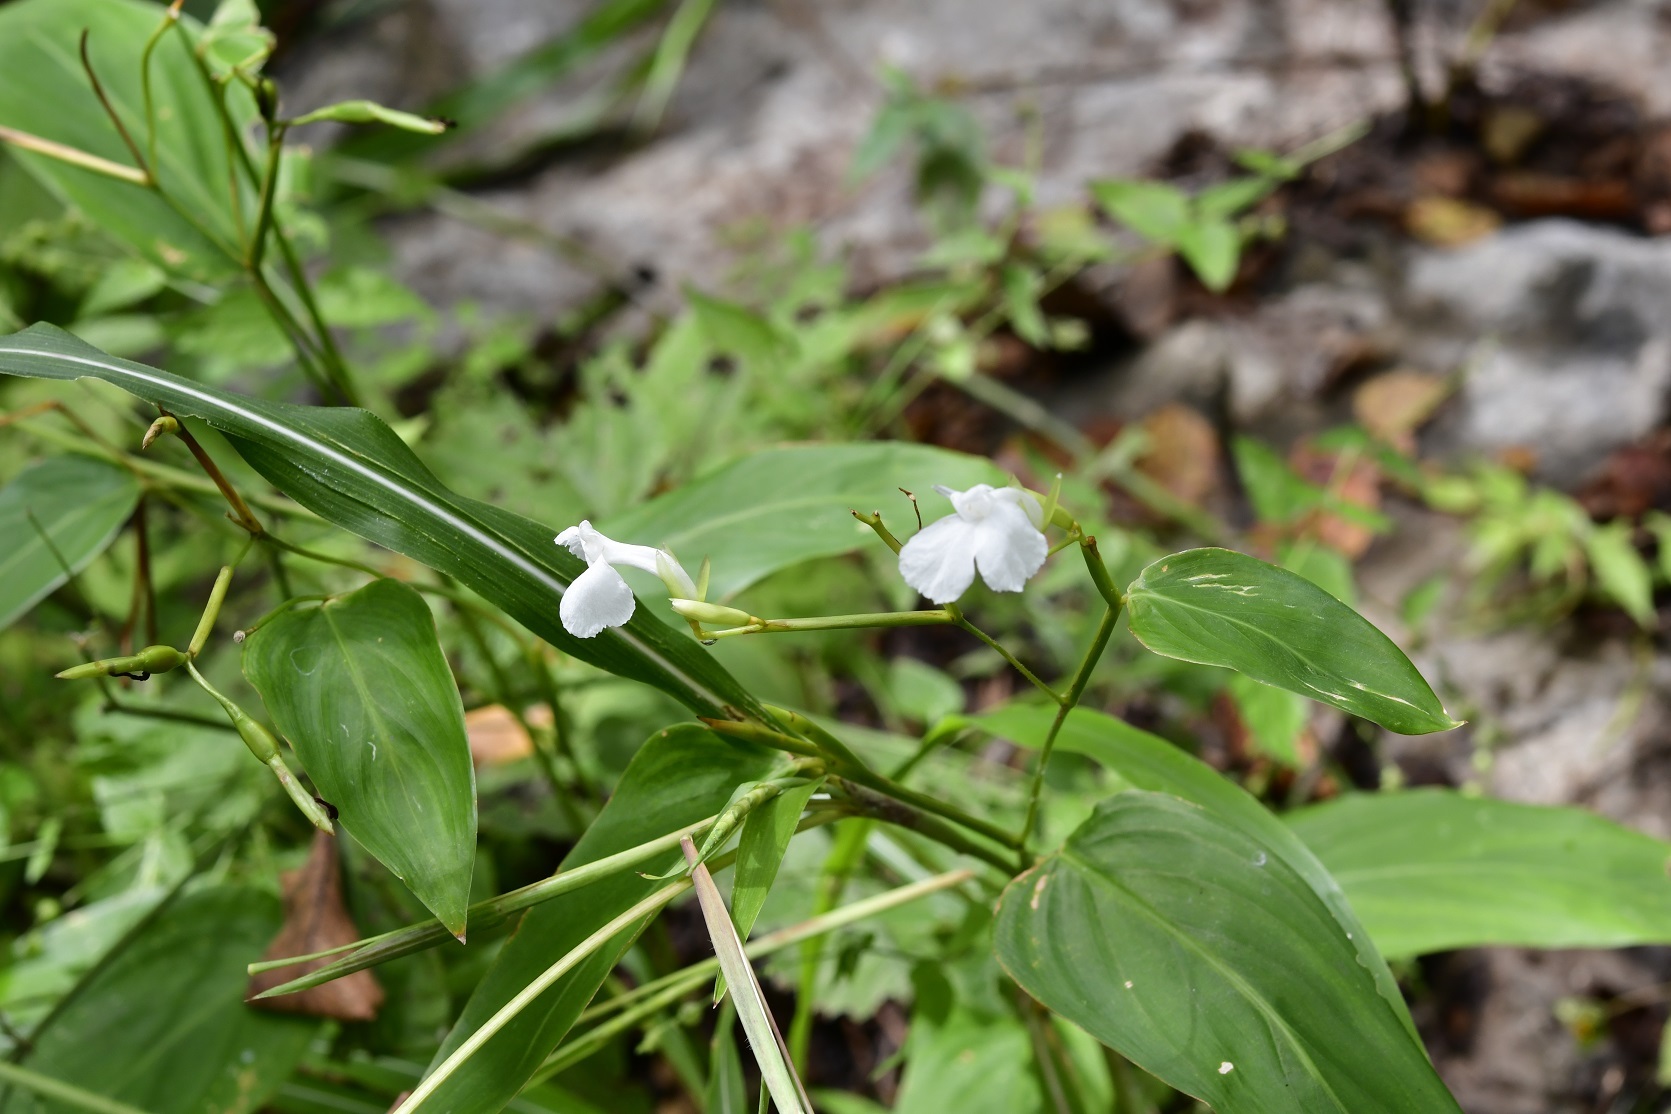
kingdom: Plantae
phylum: Tracheophyta
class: Liliopsida
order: Zingiberales
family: Marantaceae
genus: Maranta
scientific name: Maranta arundinacea
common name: Arrowroot
